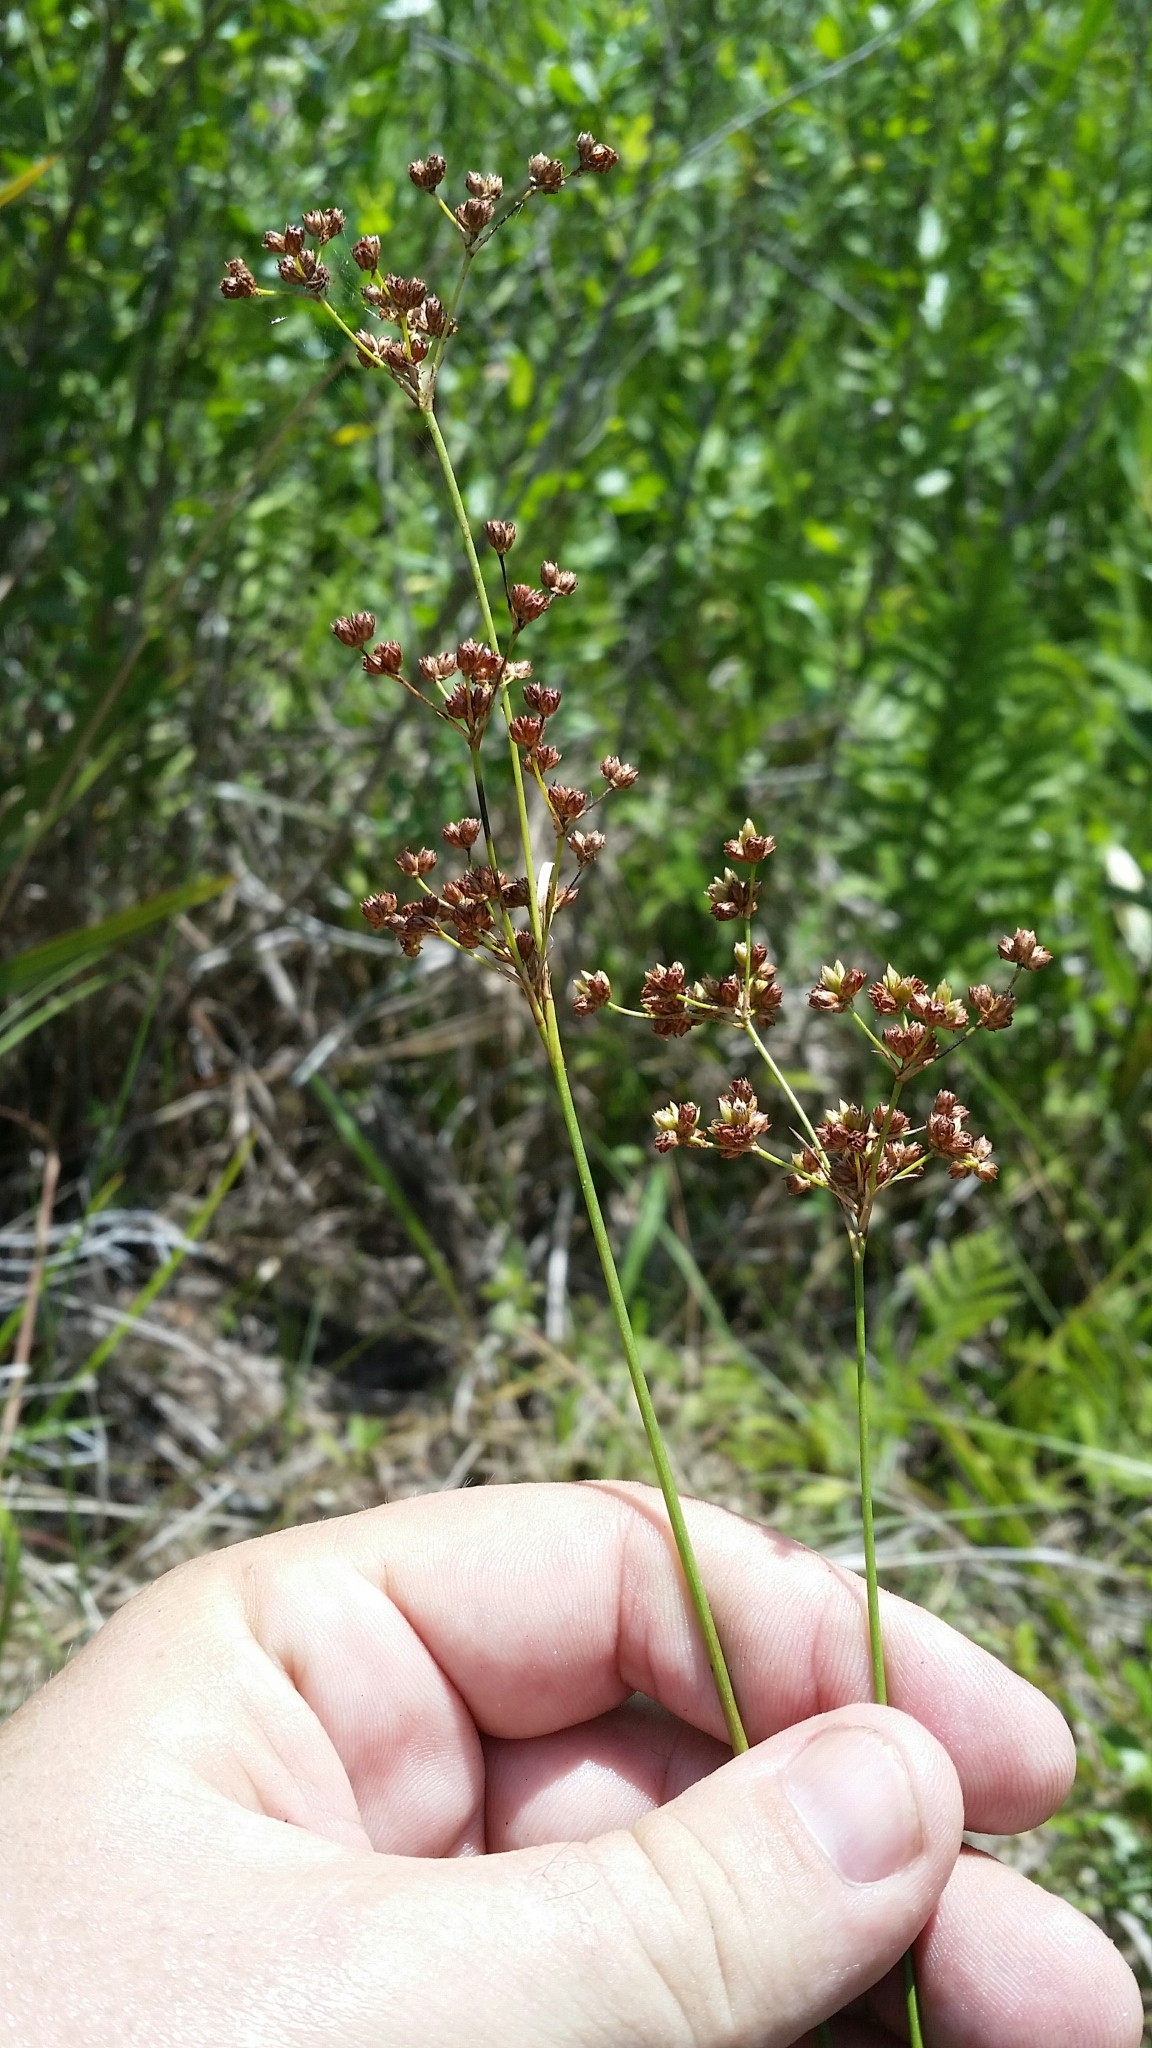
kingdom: Plantae
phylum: Tracheophyta
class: Liliopsida
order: Poales
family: Juncaceae
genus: Juncus
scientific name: Juncus biflorus
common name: Two-flowered rush
